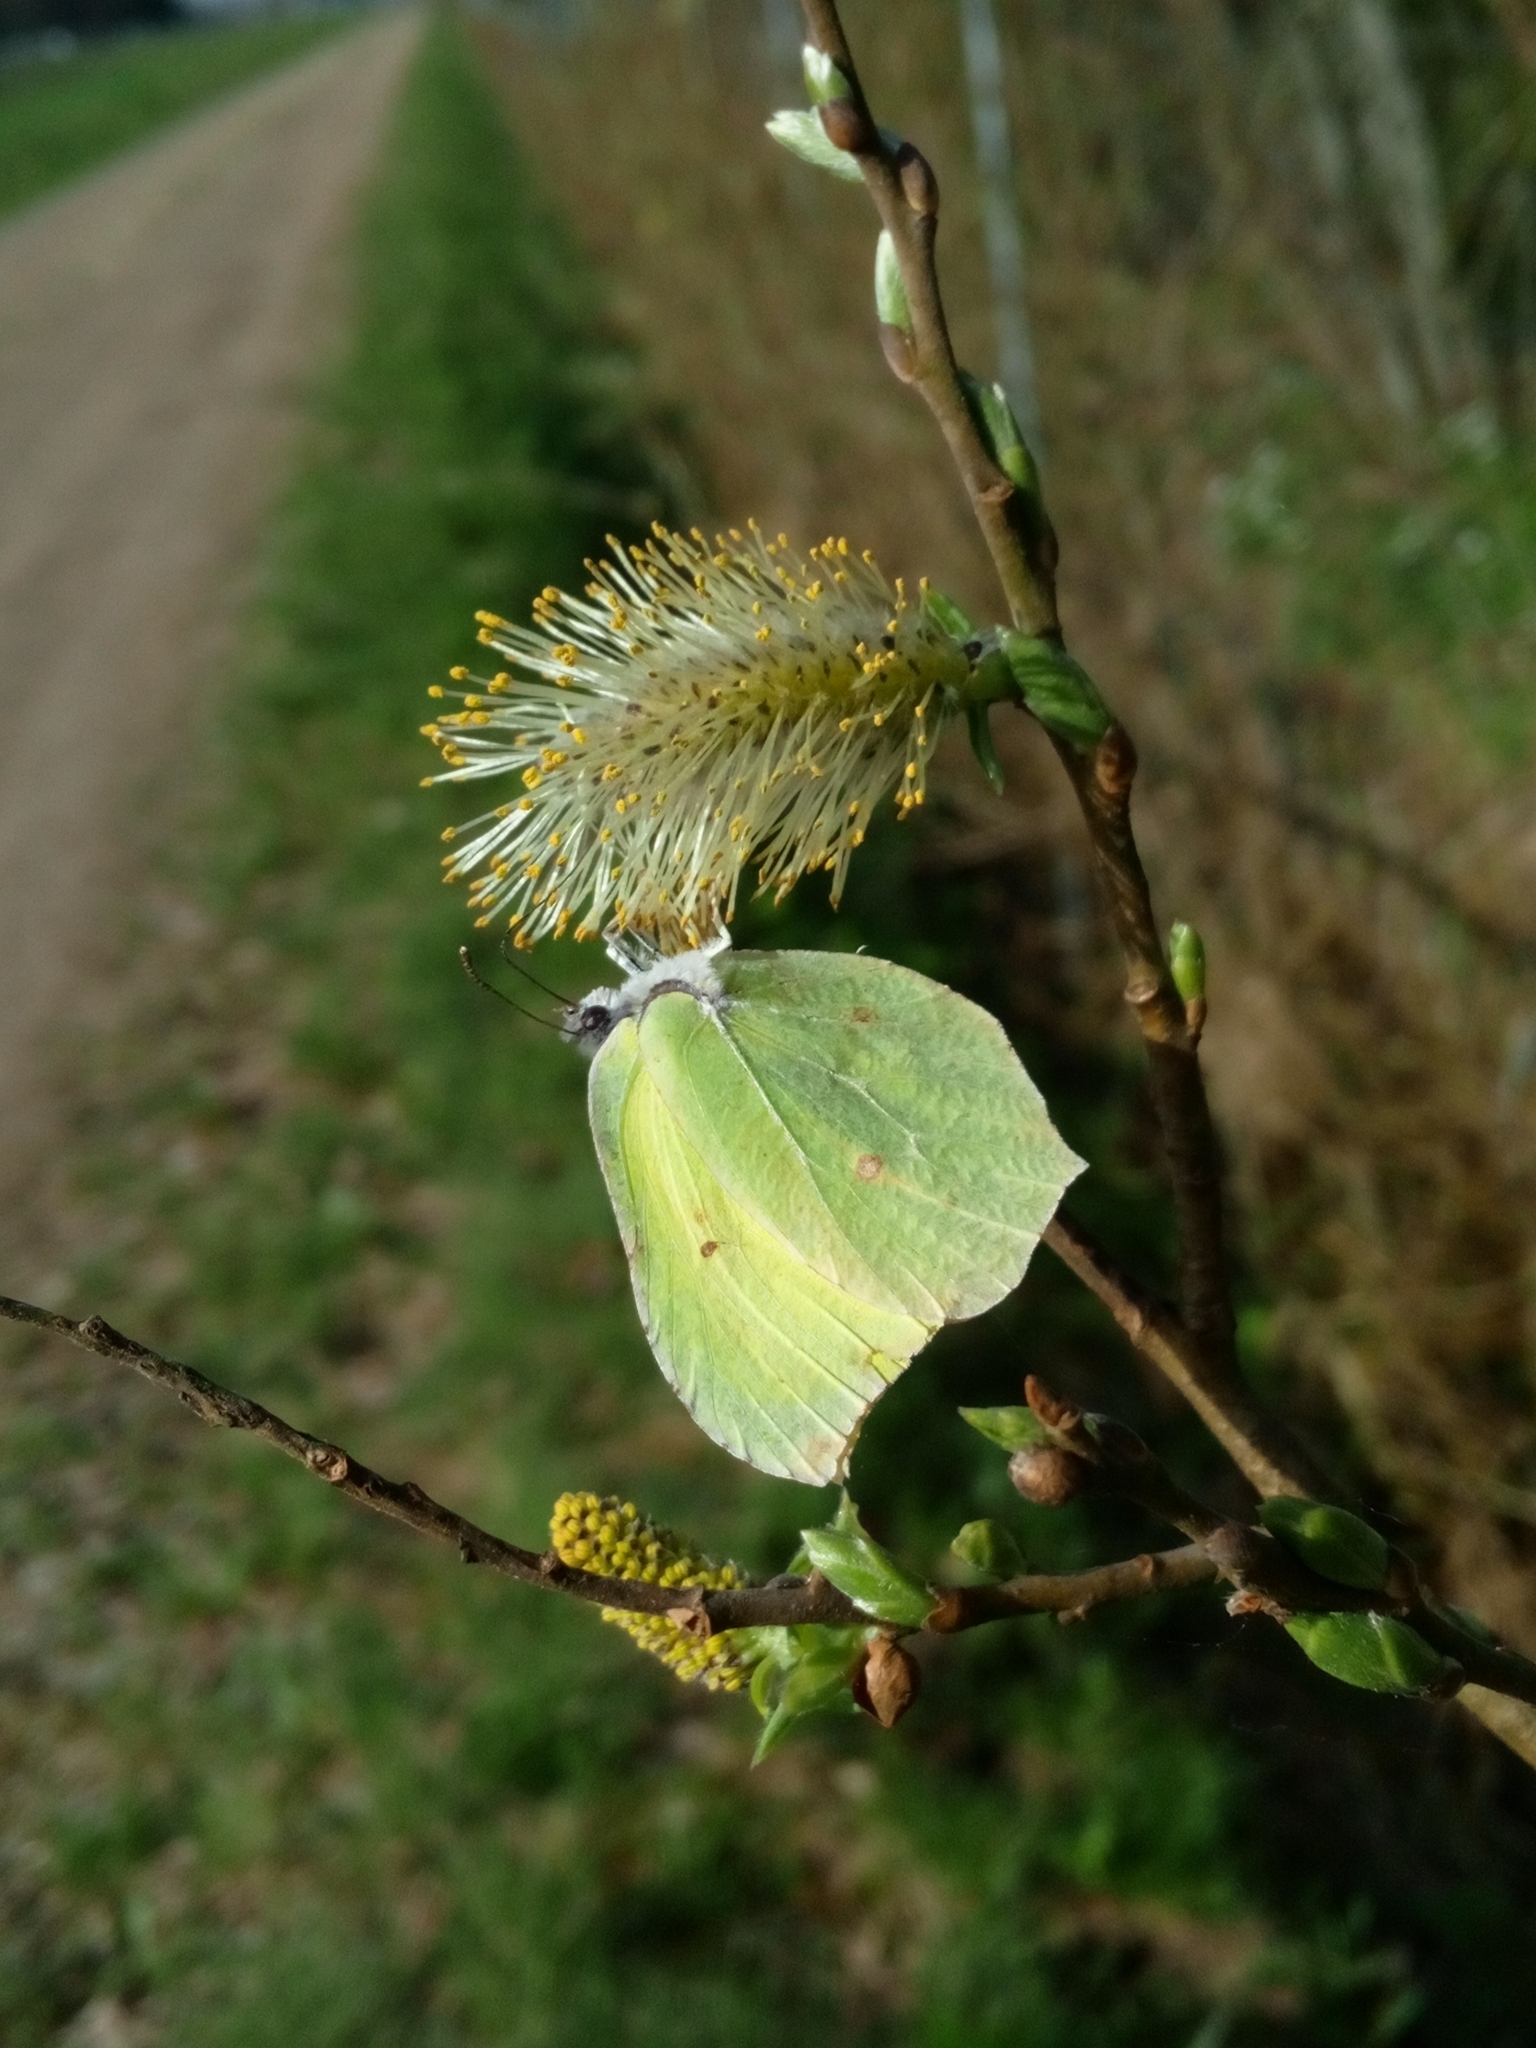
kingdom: Animalia
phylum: Arthropoda
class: Insecta
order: Lepidoptera
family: Pieridae
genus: Gonepteryx
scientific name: Gonepteryx rhamni
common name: Brimstone
